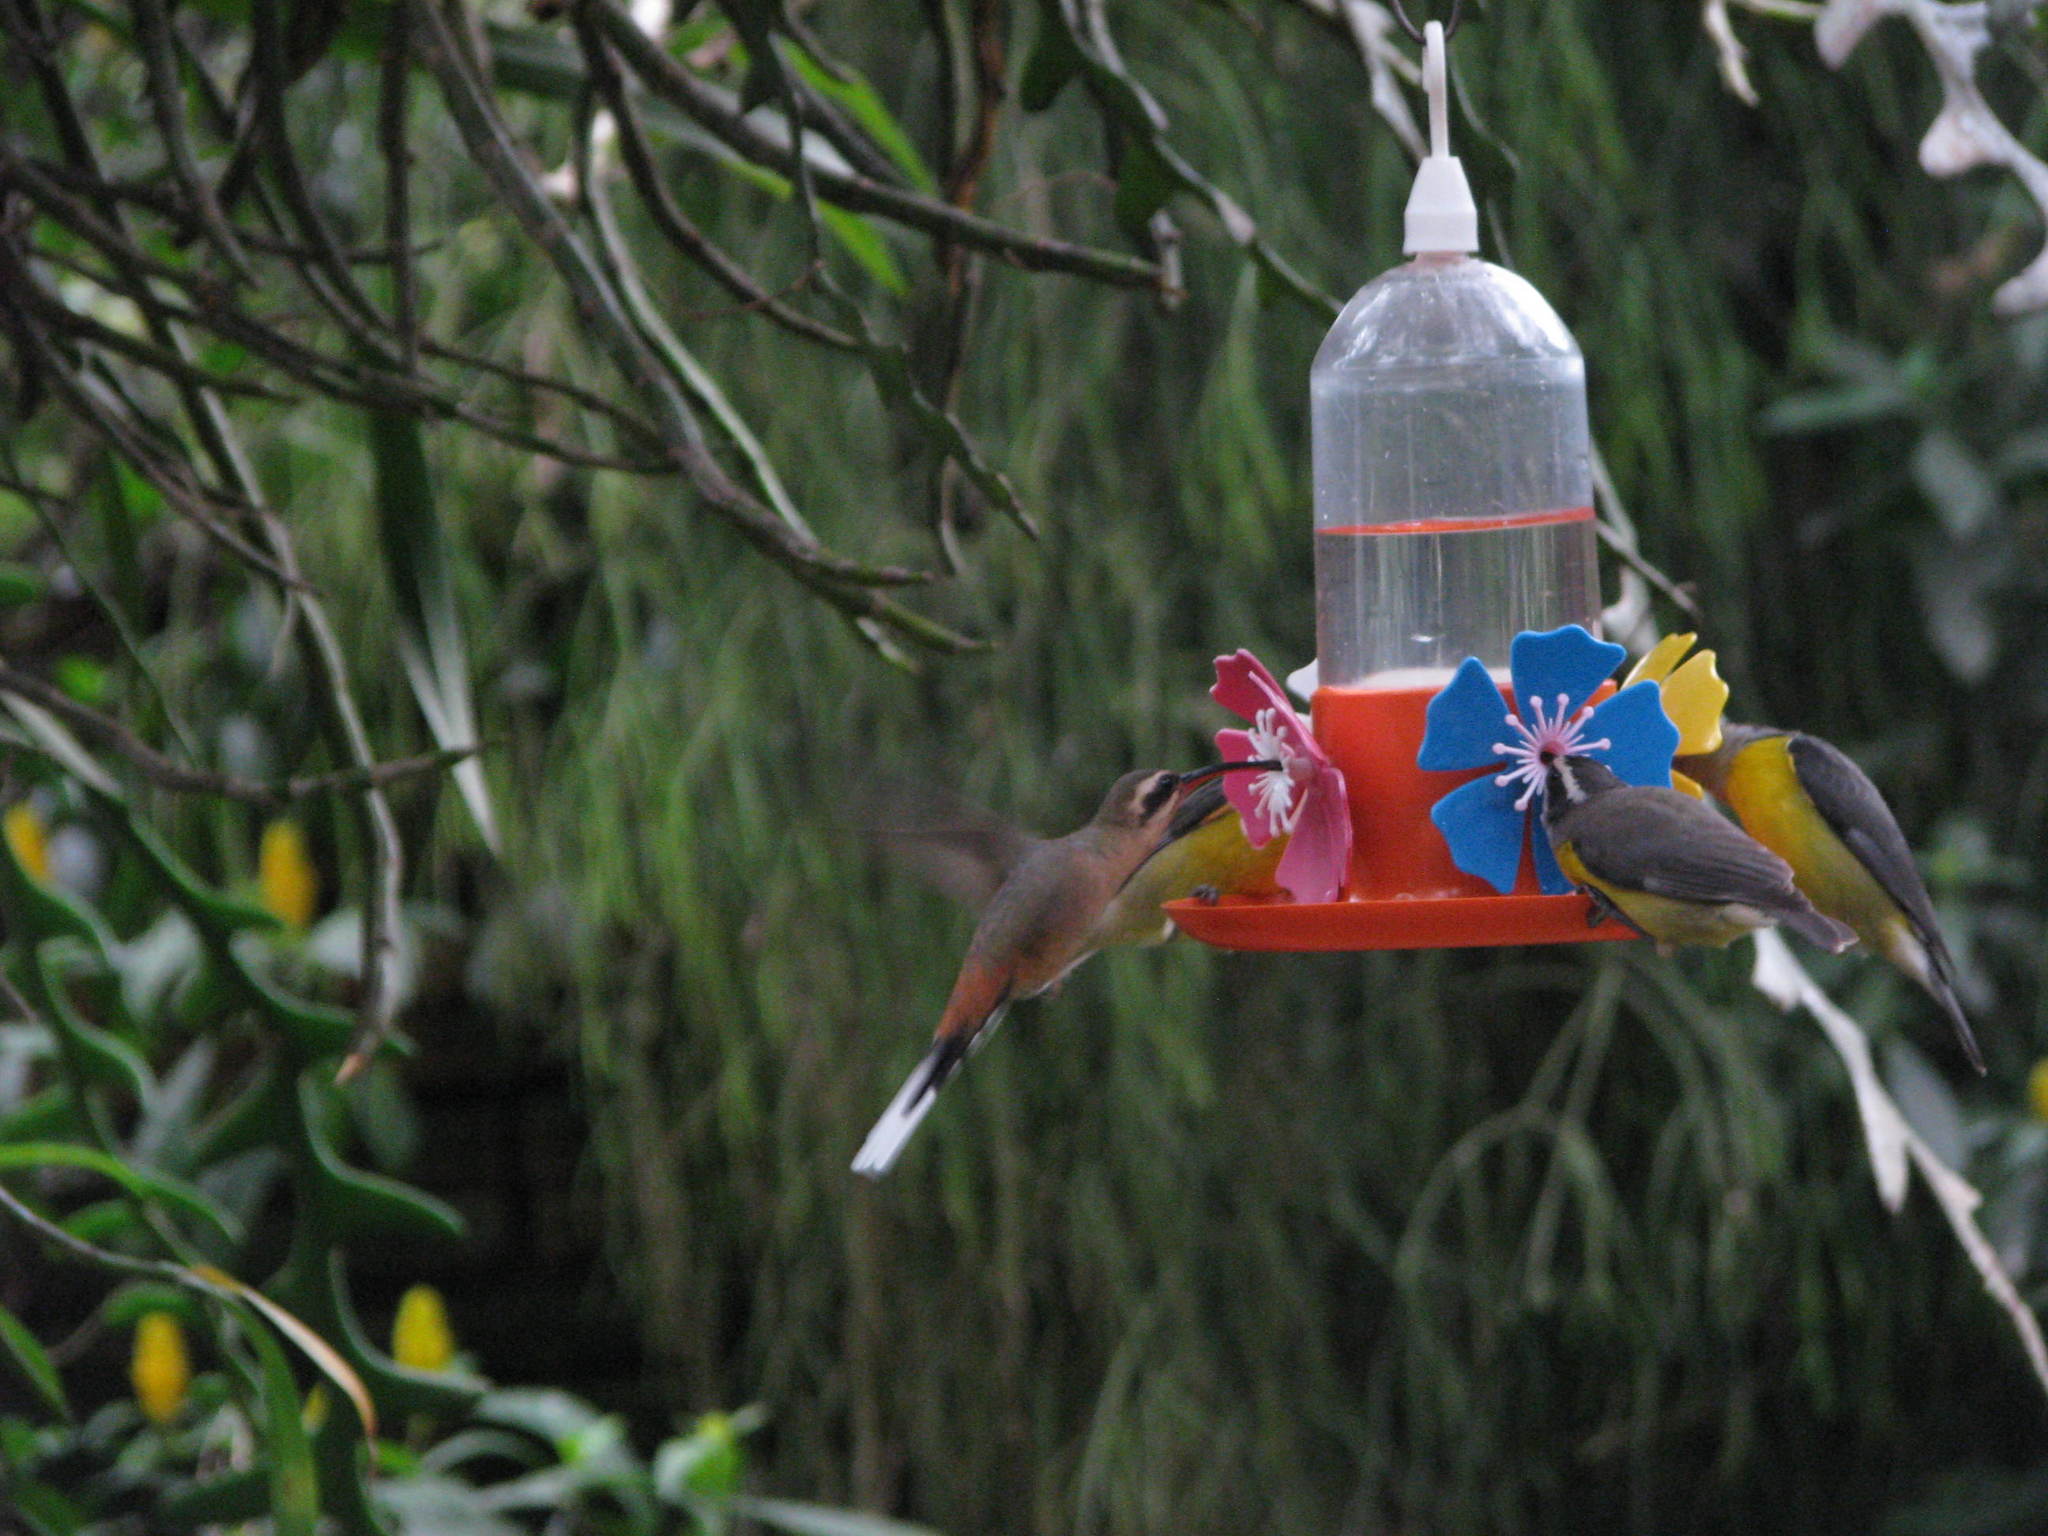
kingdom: Animalia
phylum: Chordata
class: Aves
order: Apodiformes
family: Trochilidae
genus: Phaethornis
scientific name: Phaethornis pretrei
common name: Planalto hermit
